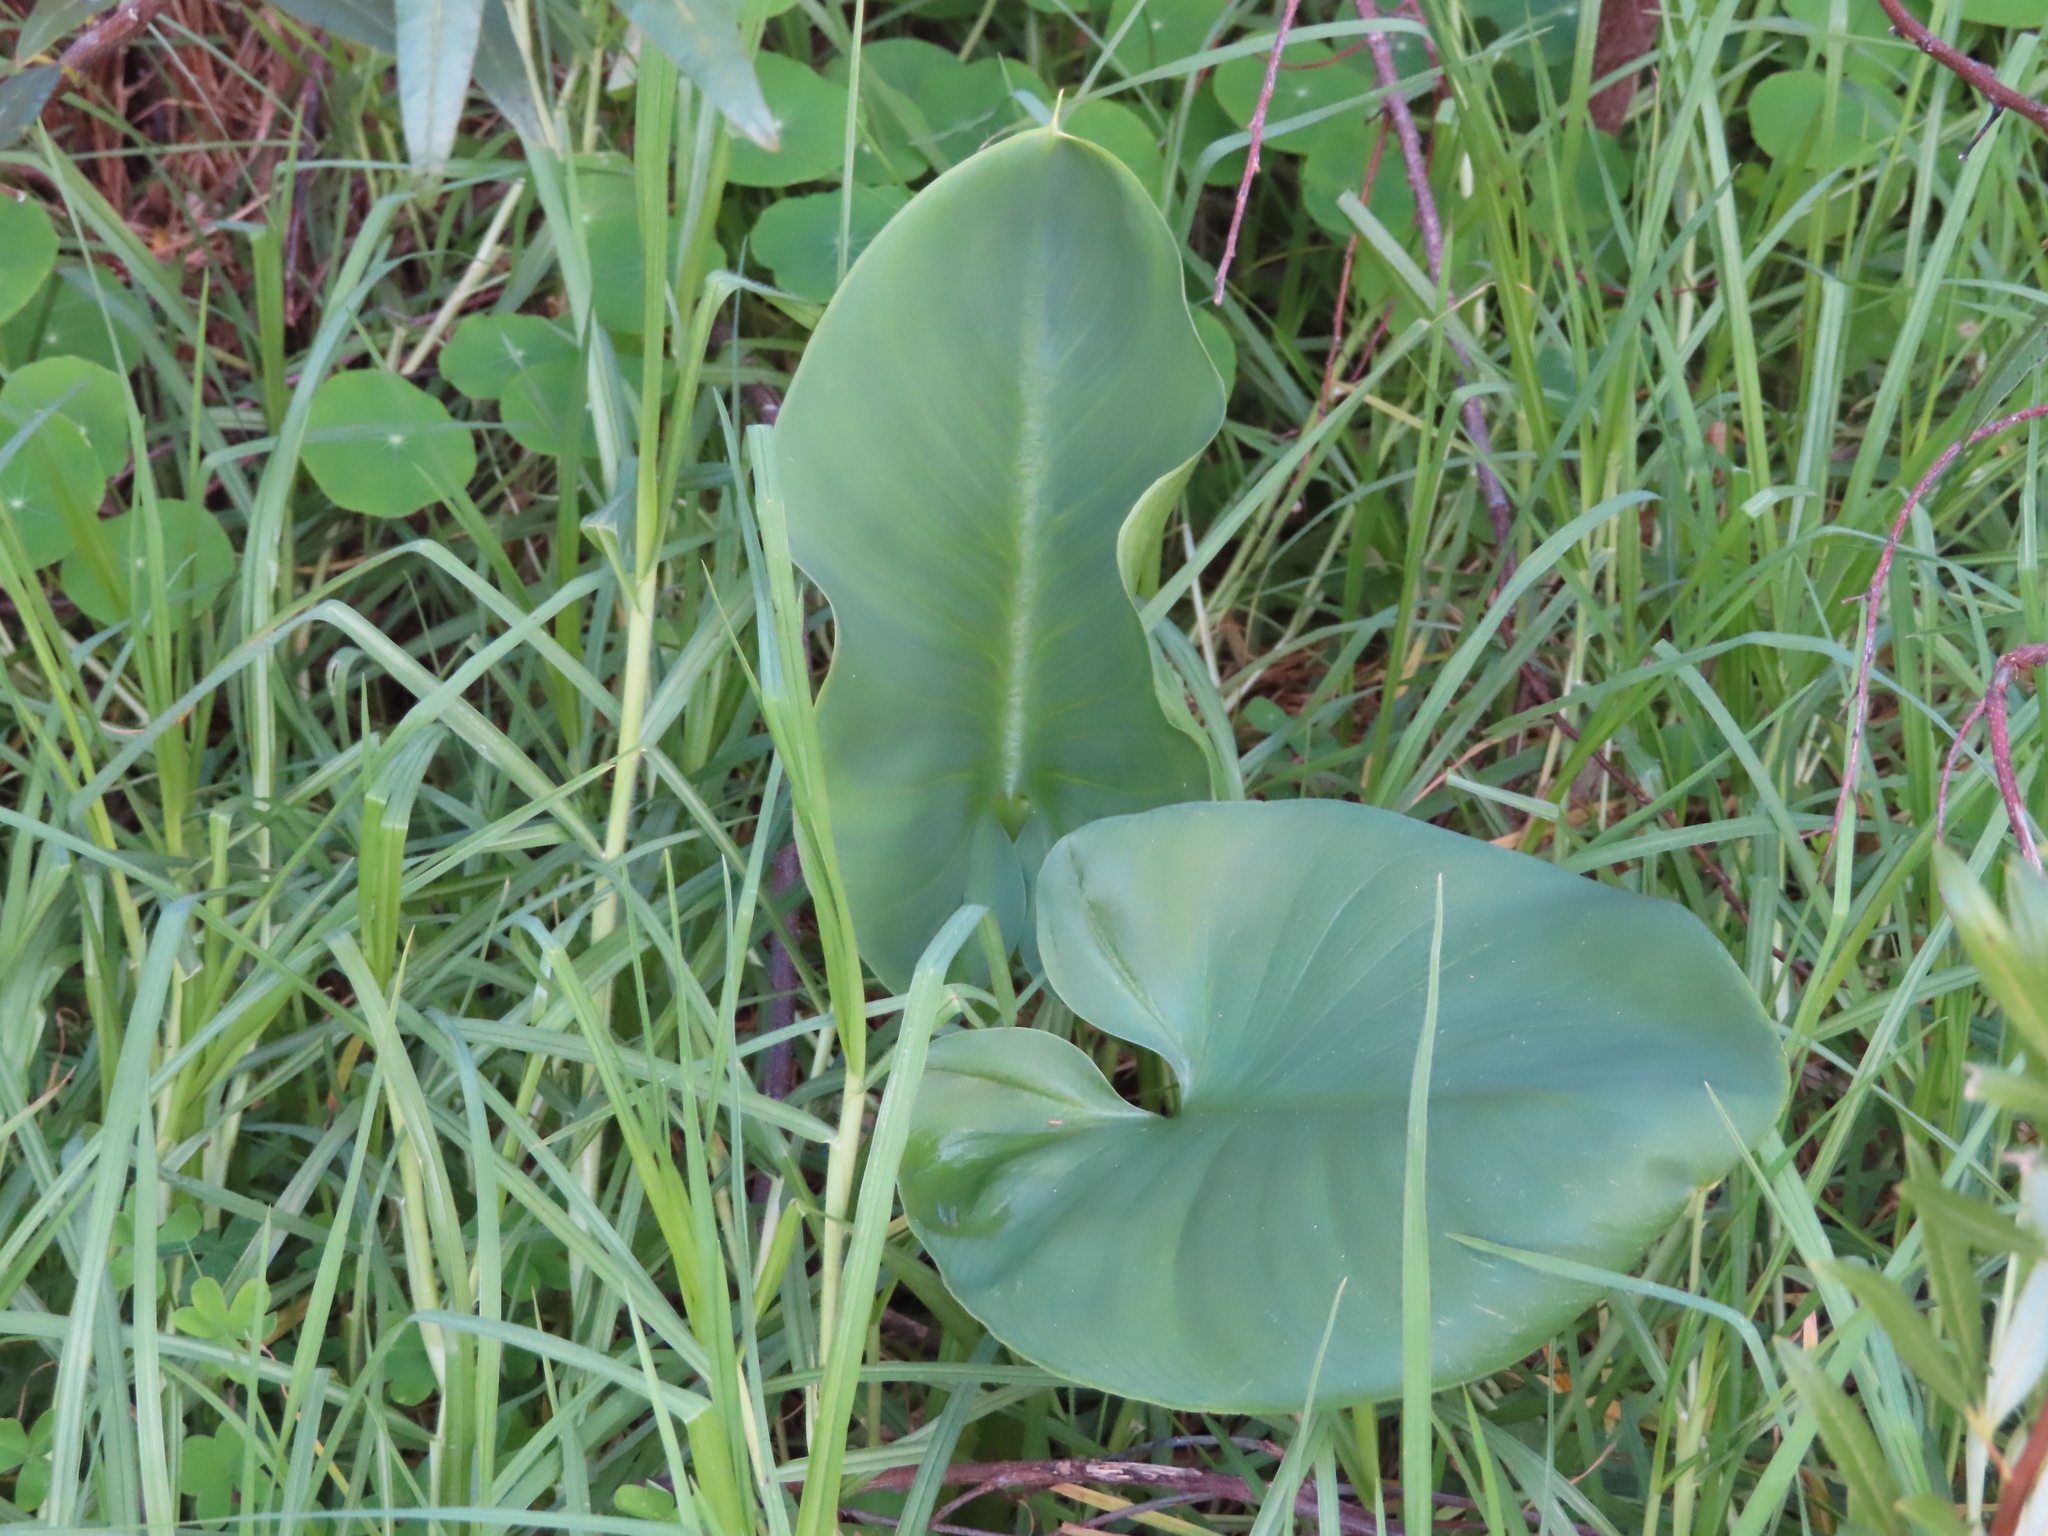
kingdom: Plantae
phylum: Tracheophyta
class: Liliopsida
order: Alismatales
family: Araceae
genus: Zantedeschia
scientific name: Zantedeschia aethiopica
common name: Altar-lily
